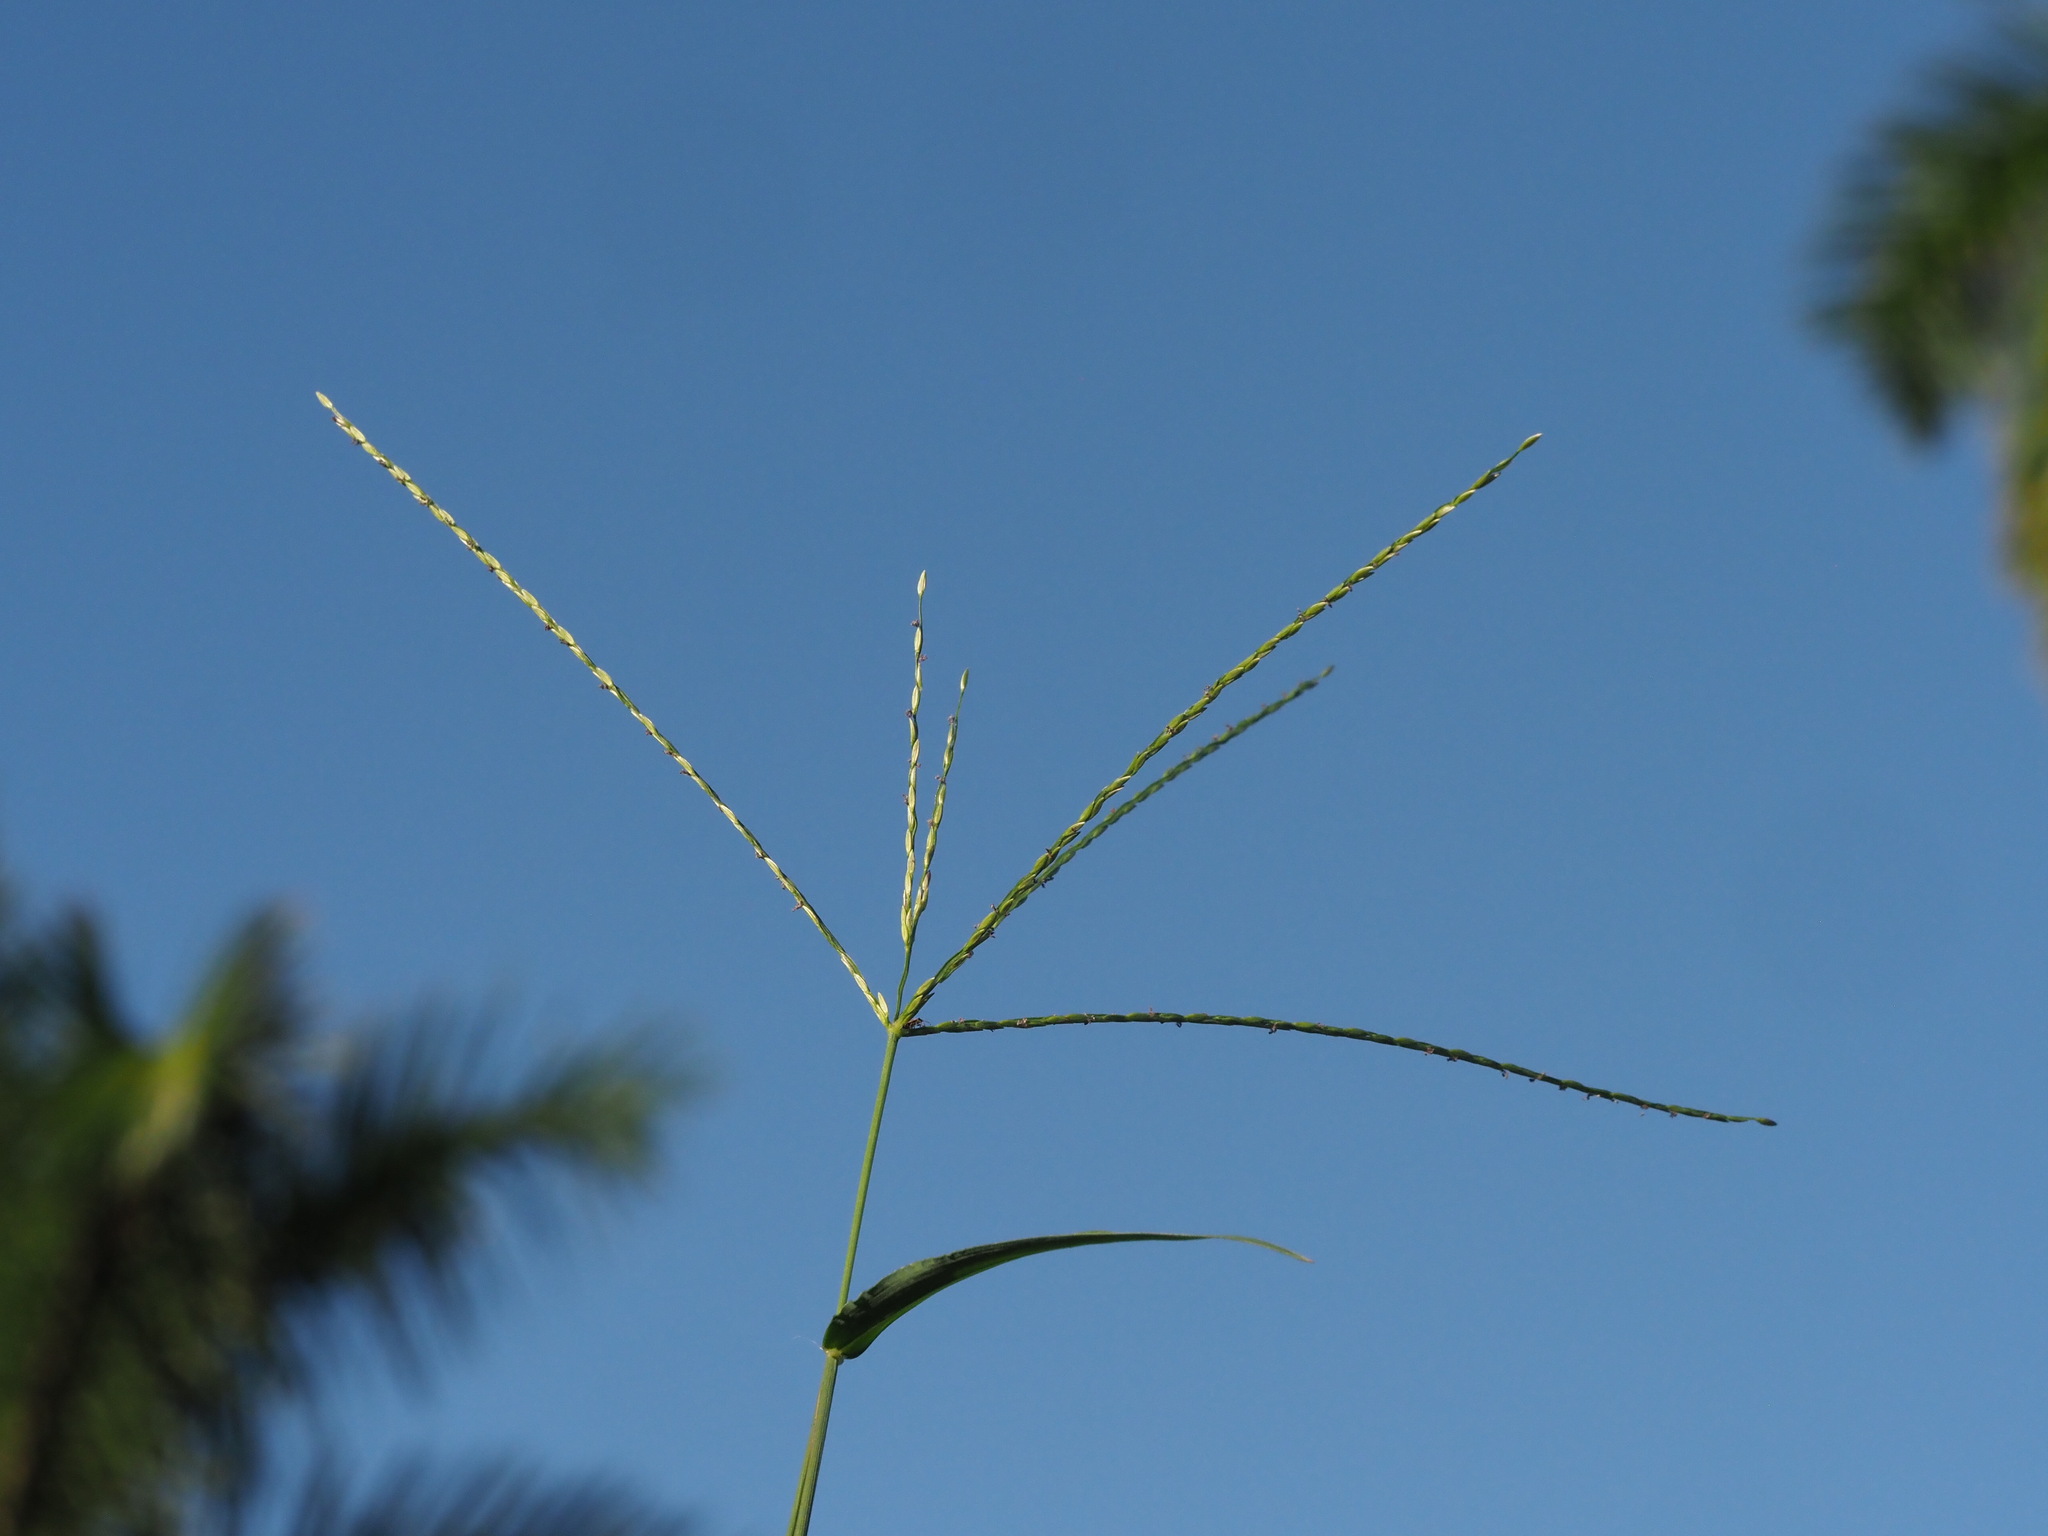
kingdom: Plantae
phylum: Tracheophyta
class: Liliopsida
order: Poales
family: Poaceae
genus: Digitaria
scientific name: Digitaria nuda
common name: Naked crabgrass
